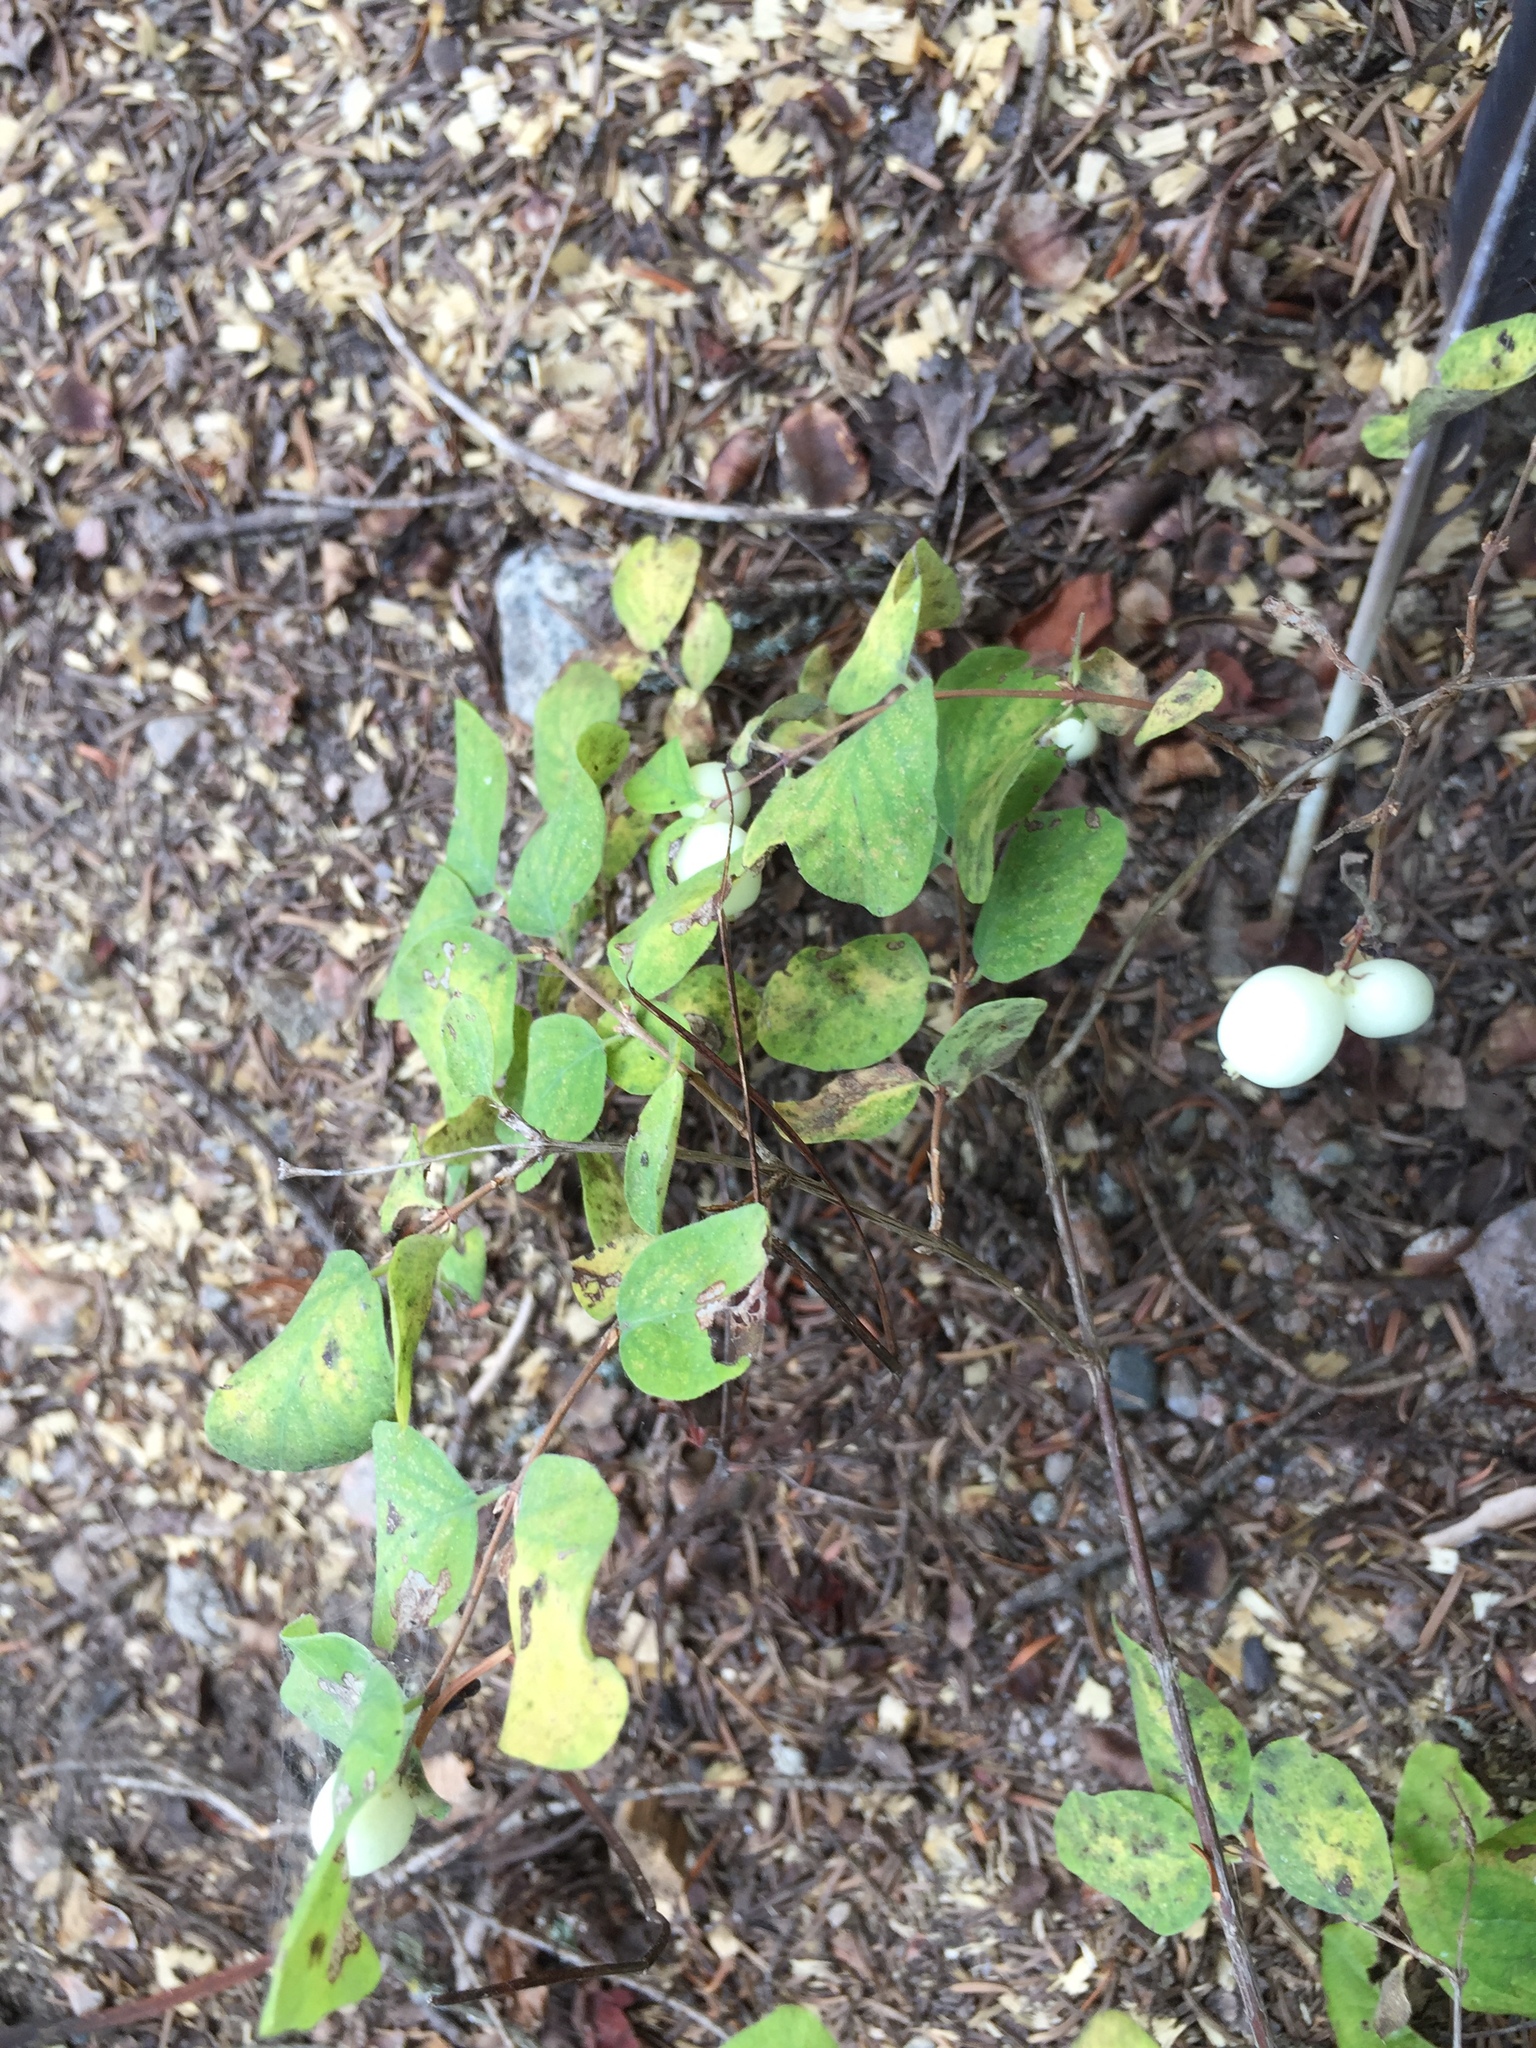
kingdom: Plantae
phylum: Tracheophyta
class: Magnoliopsida
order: Dipsacales
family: Caprifoliaceae
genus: Symphoricarpos
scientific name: Symphoricarpos albus
